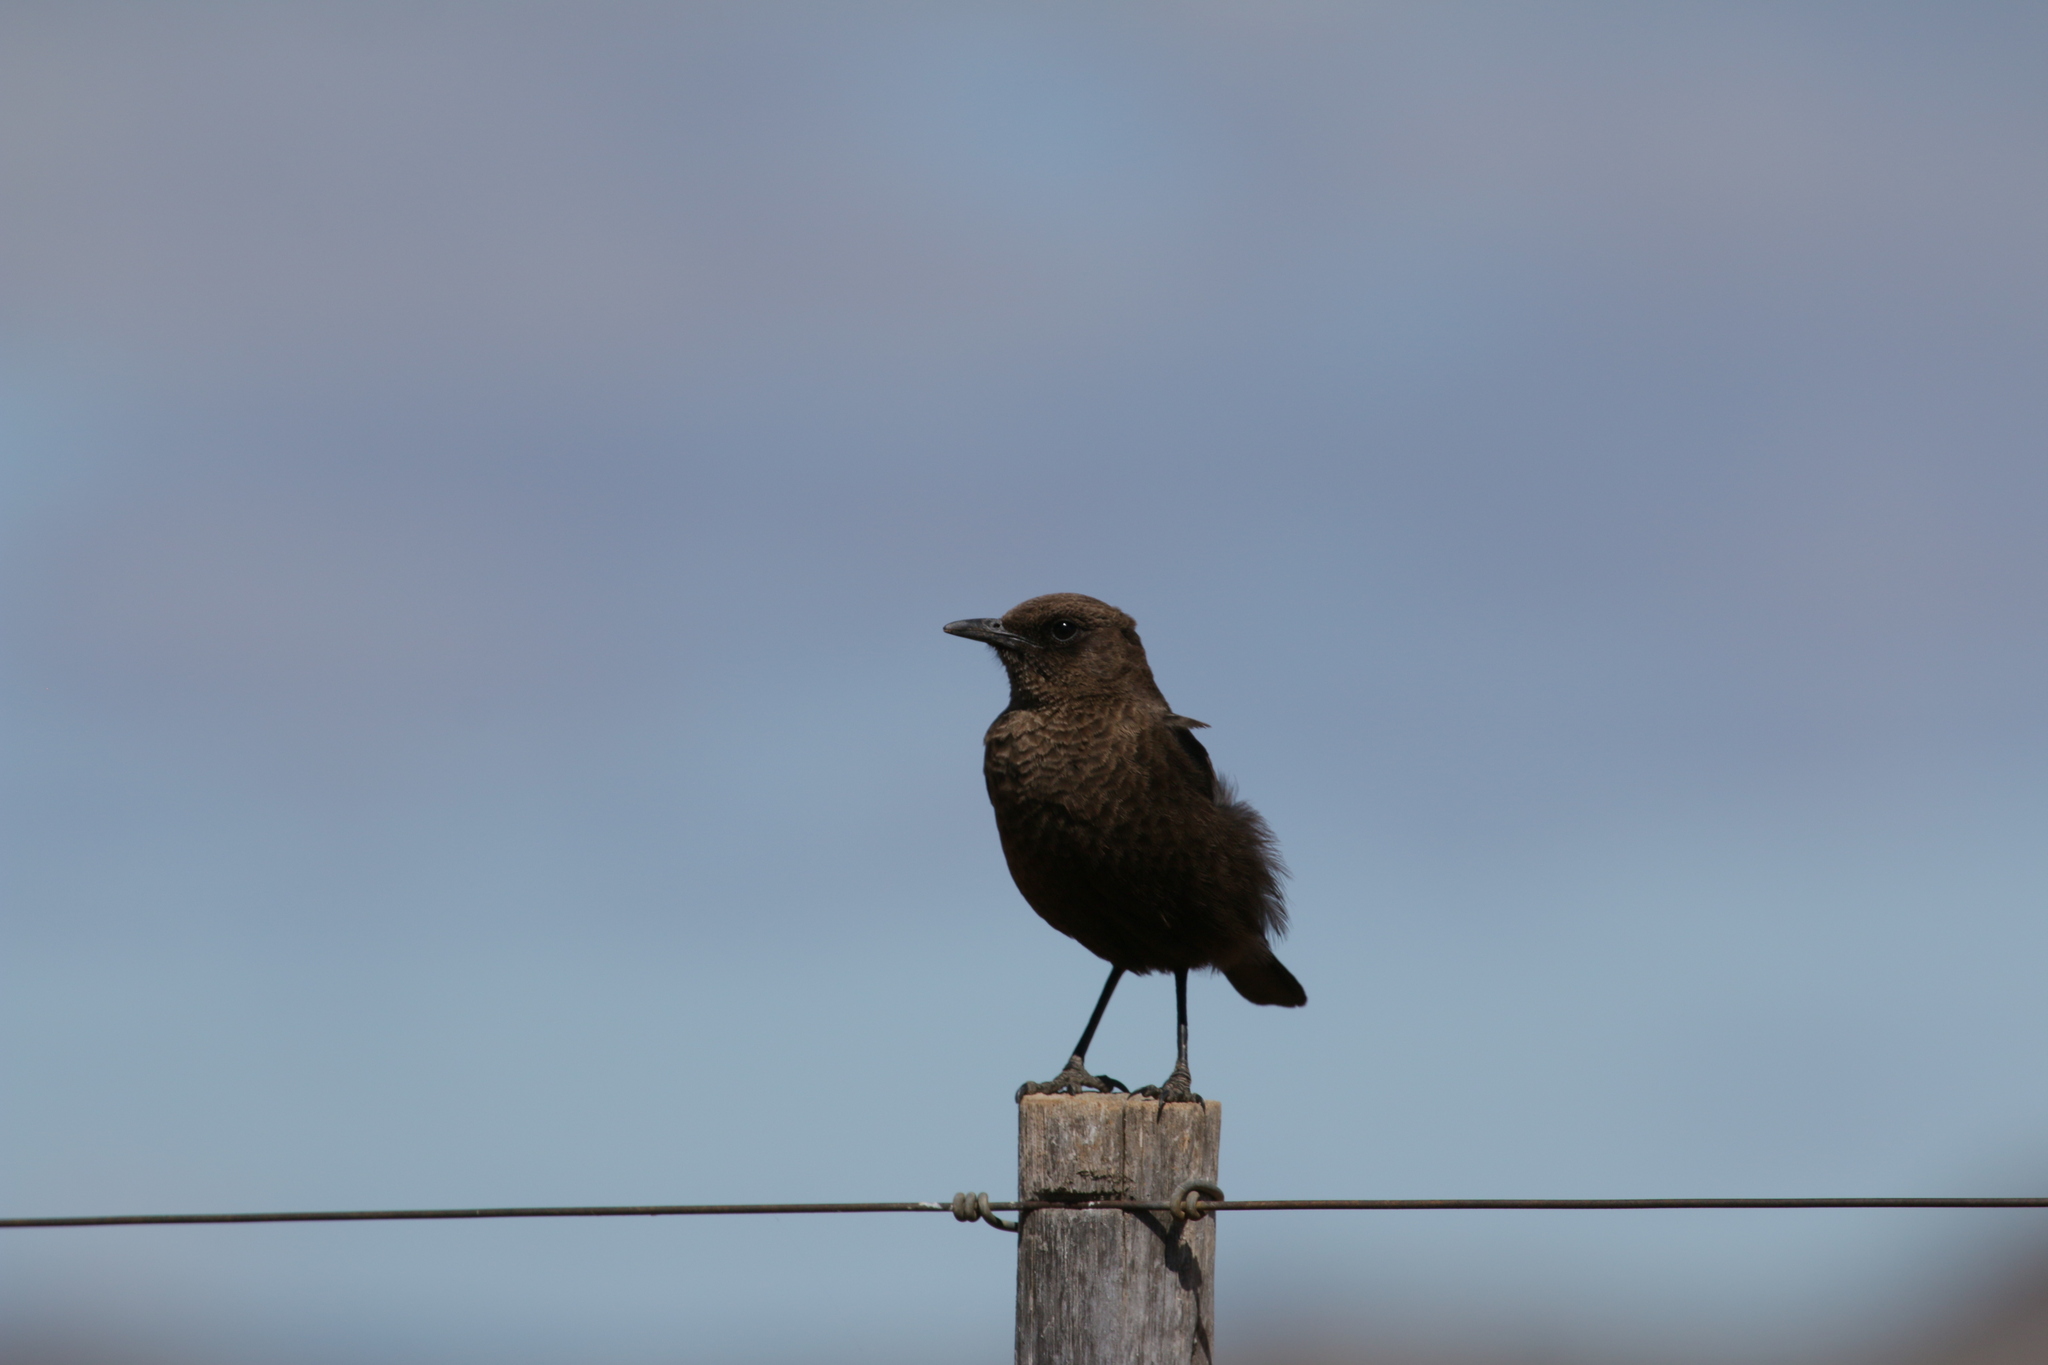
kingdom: Animalia
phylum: Chordata
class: Aves
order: Passeriformes
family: Muscicapidae
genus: Myrmecocichla
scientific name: Myrmecocichla formicivora
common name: Ant-eating chat
